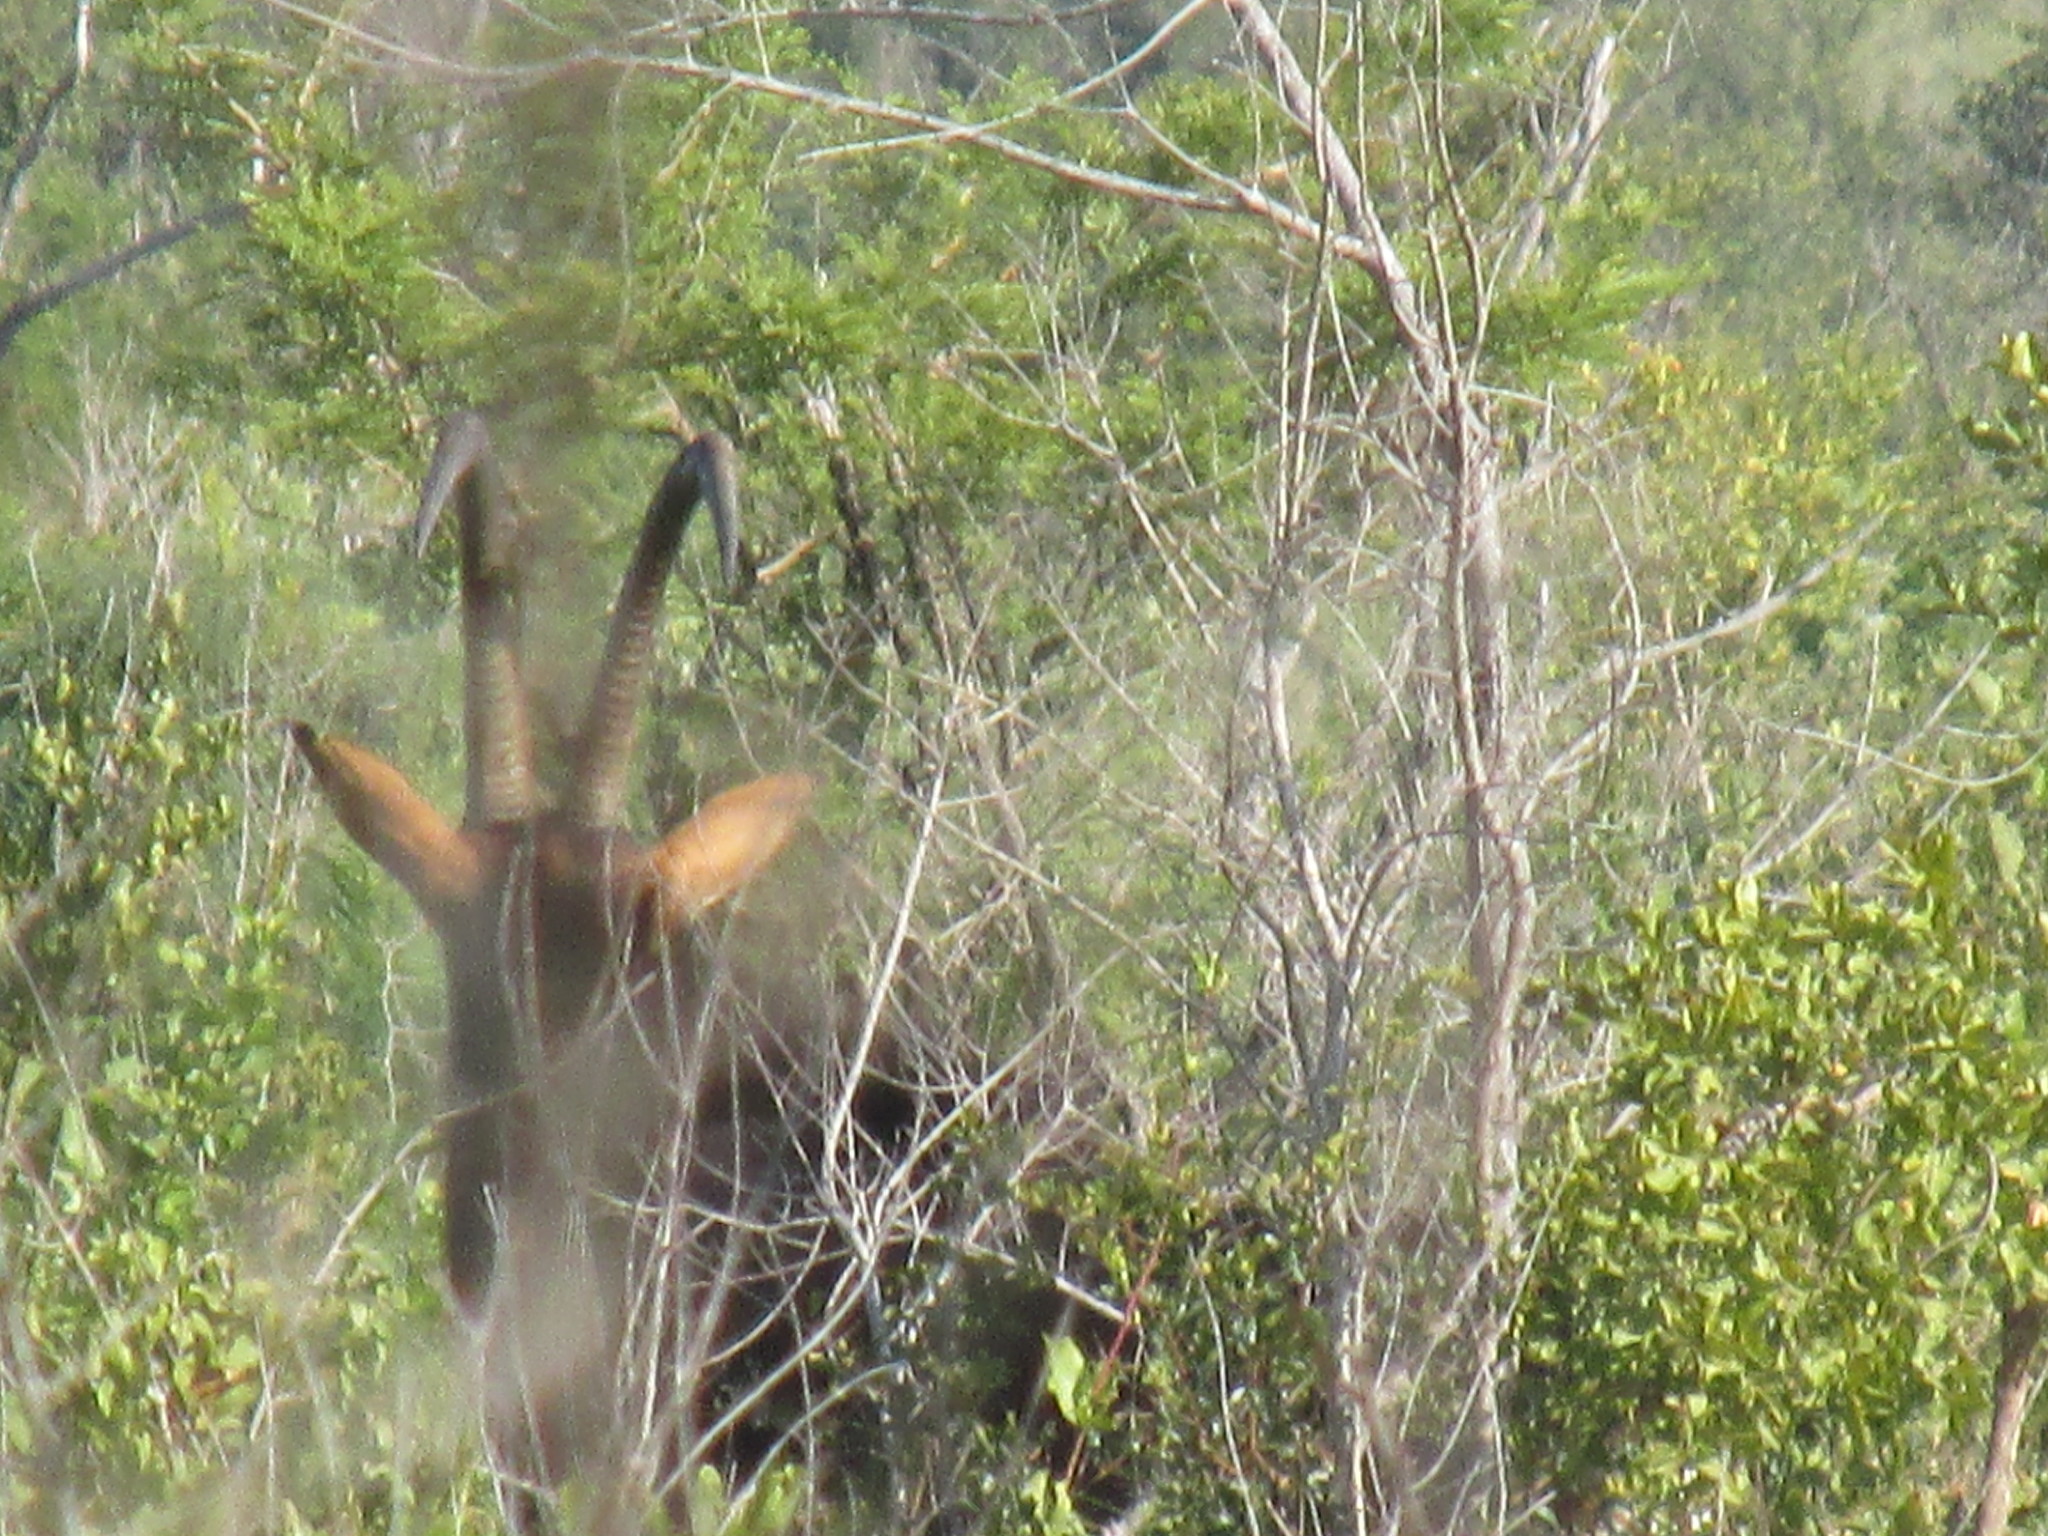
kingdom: Animalia
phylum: Chordata
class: Mammalia
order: Artiodactyla
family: Bovidae
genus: Hippotragus
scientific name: Hippotragus niger
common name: Sable antelope
